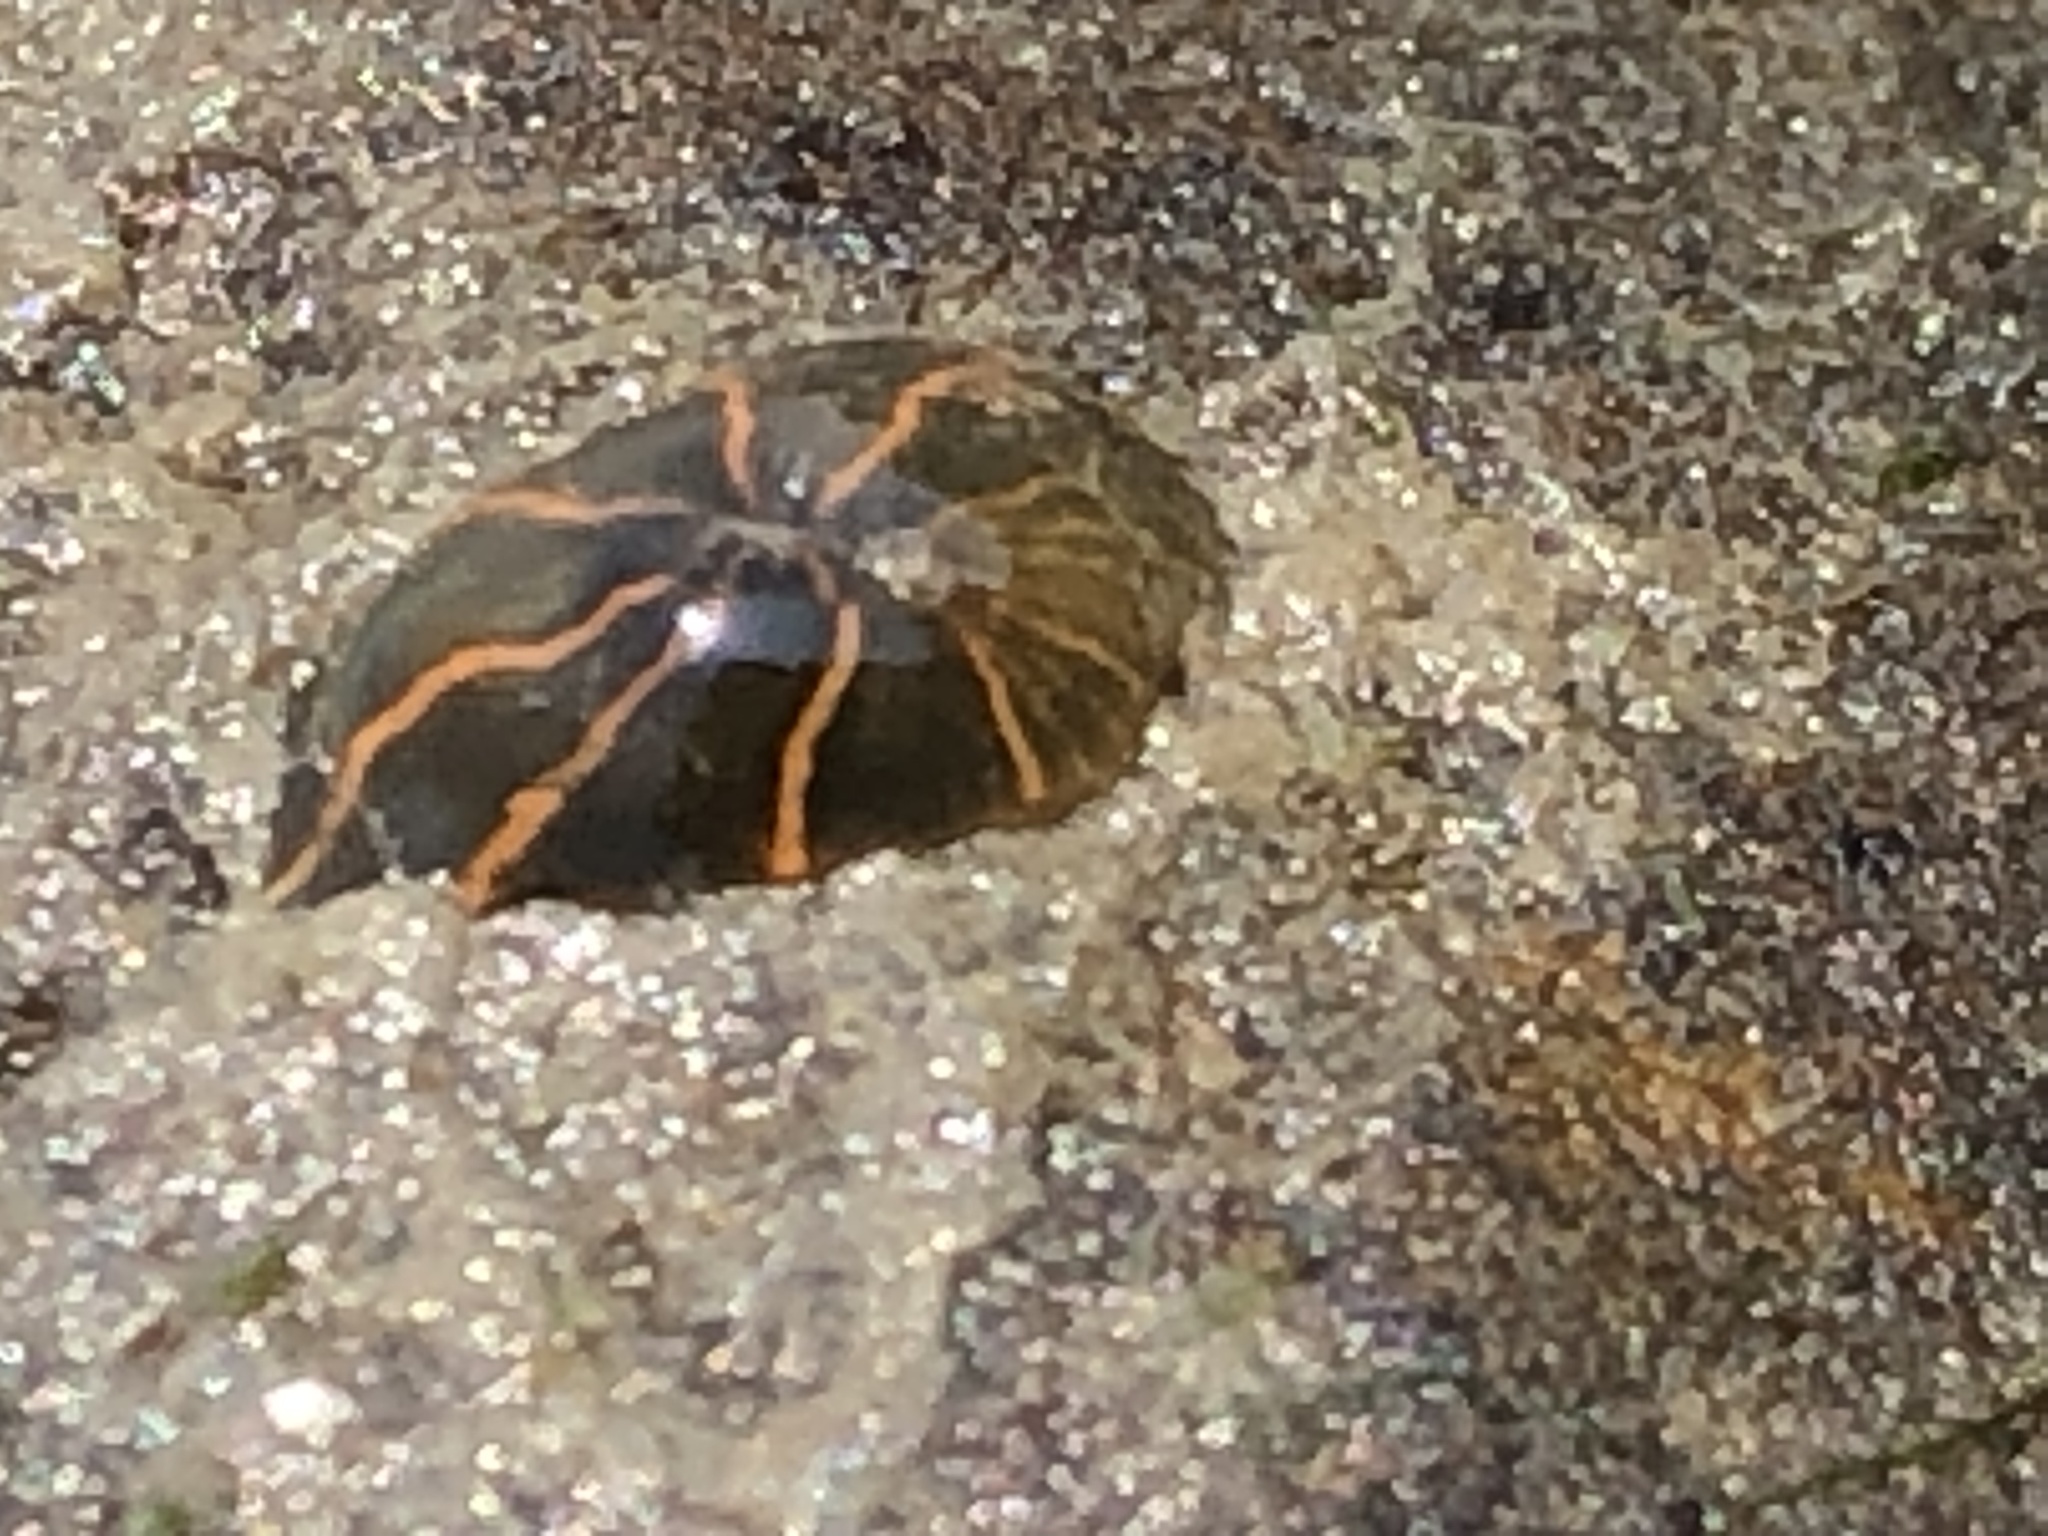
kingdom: Animalia
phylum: Cnidaria
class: Anthozoa
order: Actiniaria
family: Diadumenidae
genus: Diadumene
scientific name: Diadumene lineata
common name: Orange-striped anemone
